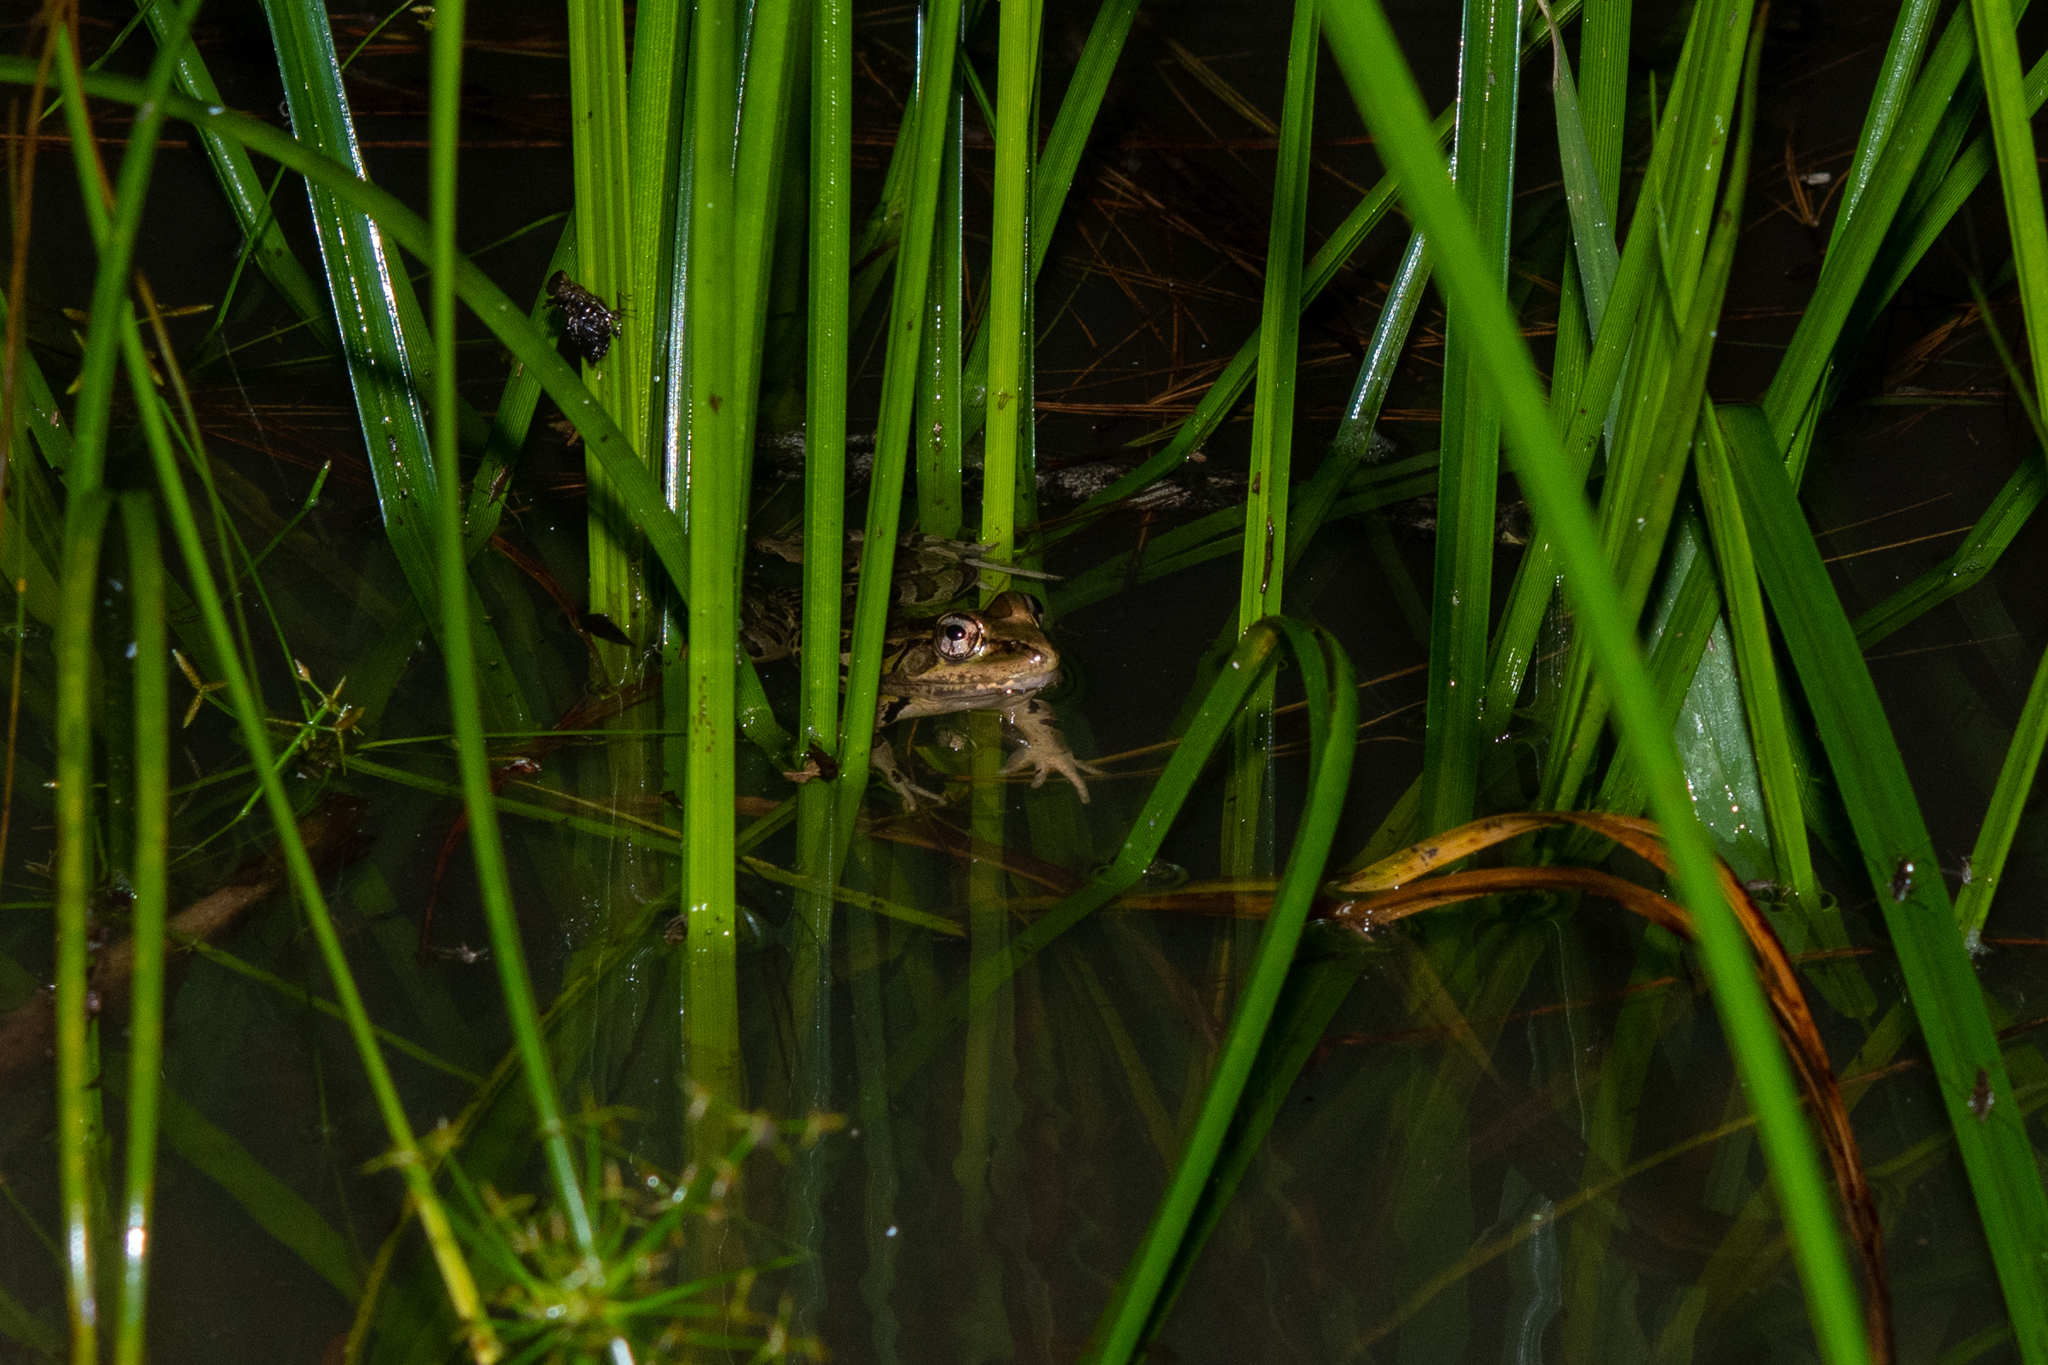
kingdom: Animalia
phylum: Chordata
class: Amphibia
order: Anura
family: Ranidae
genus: Lithobates
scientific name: Lithobates lenca
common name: Lenca leopard frog
